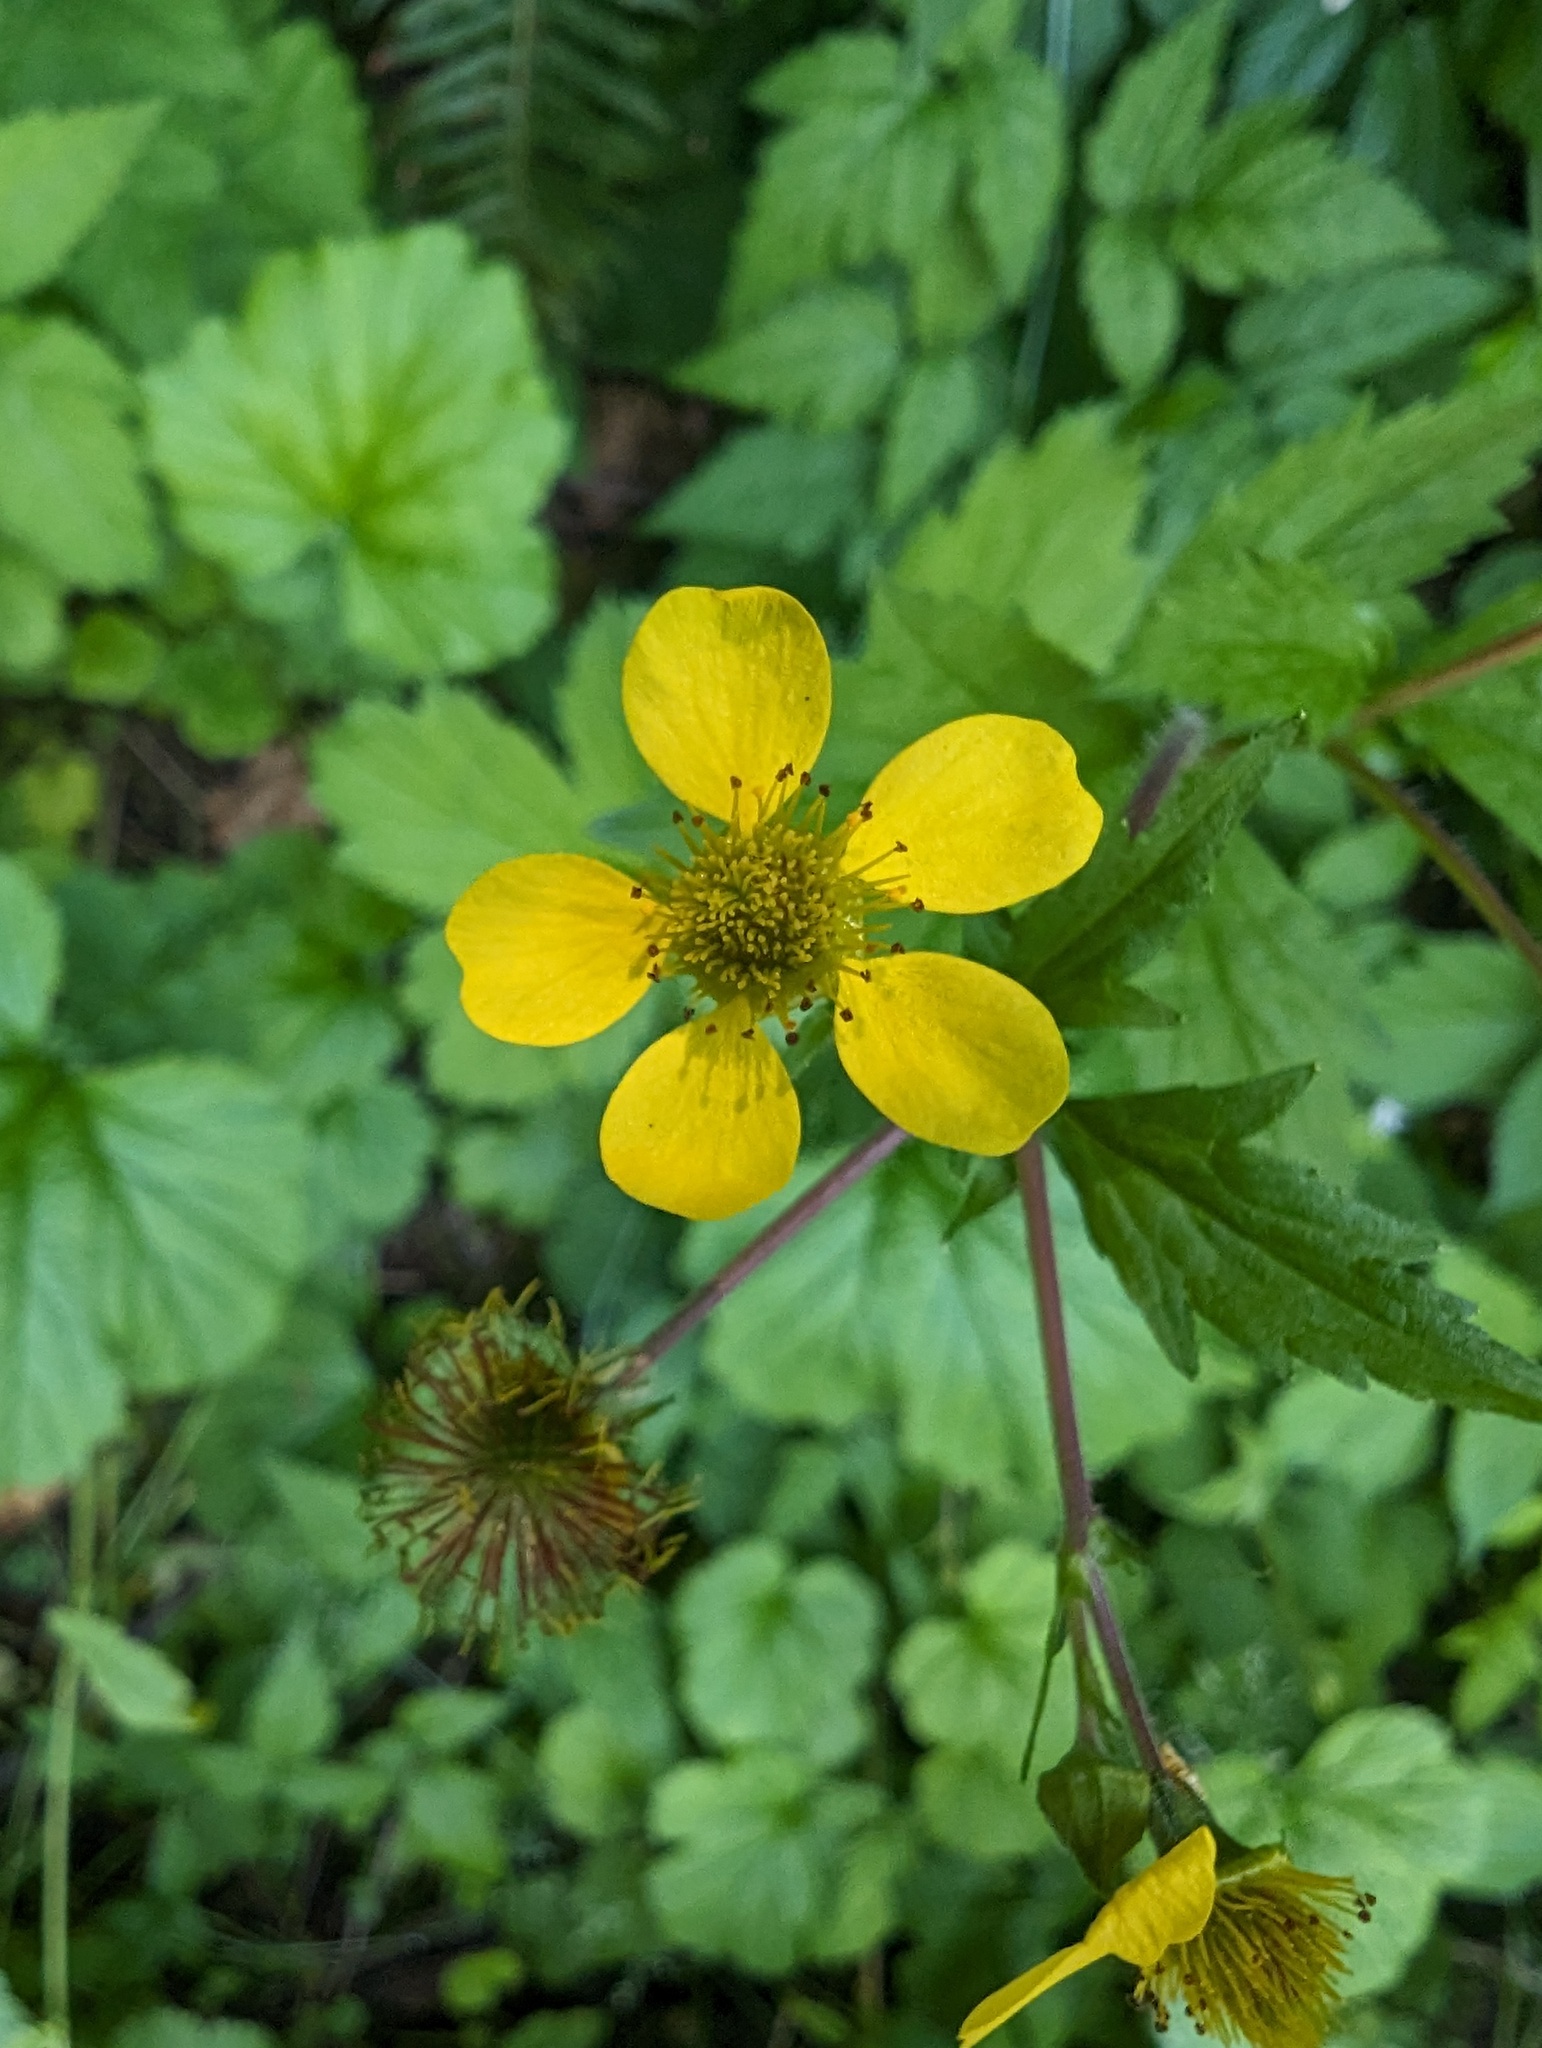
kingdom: Plantae
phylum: Tracheophyta
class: Magnoliopsida
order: Rosales
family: Rosaceae
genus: Geum
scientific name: Geum macrophyllum
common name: Large-leaved avens
